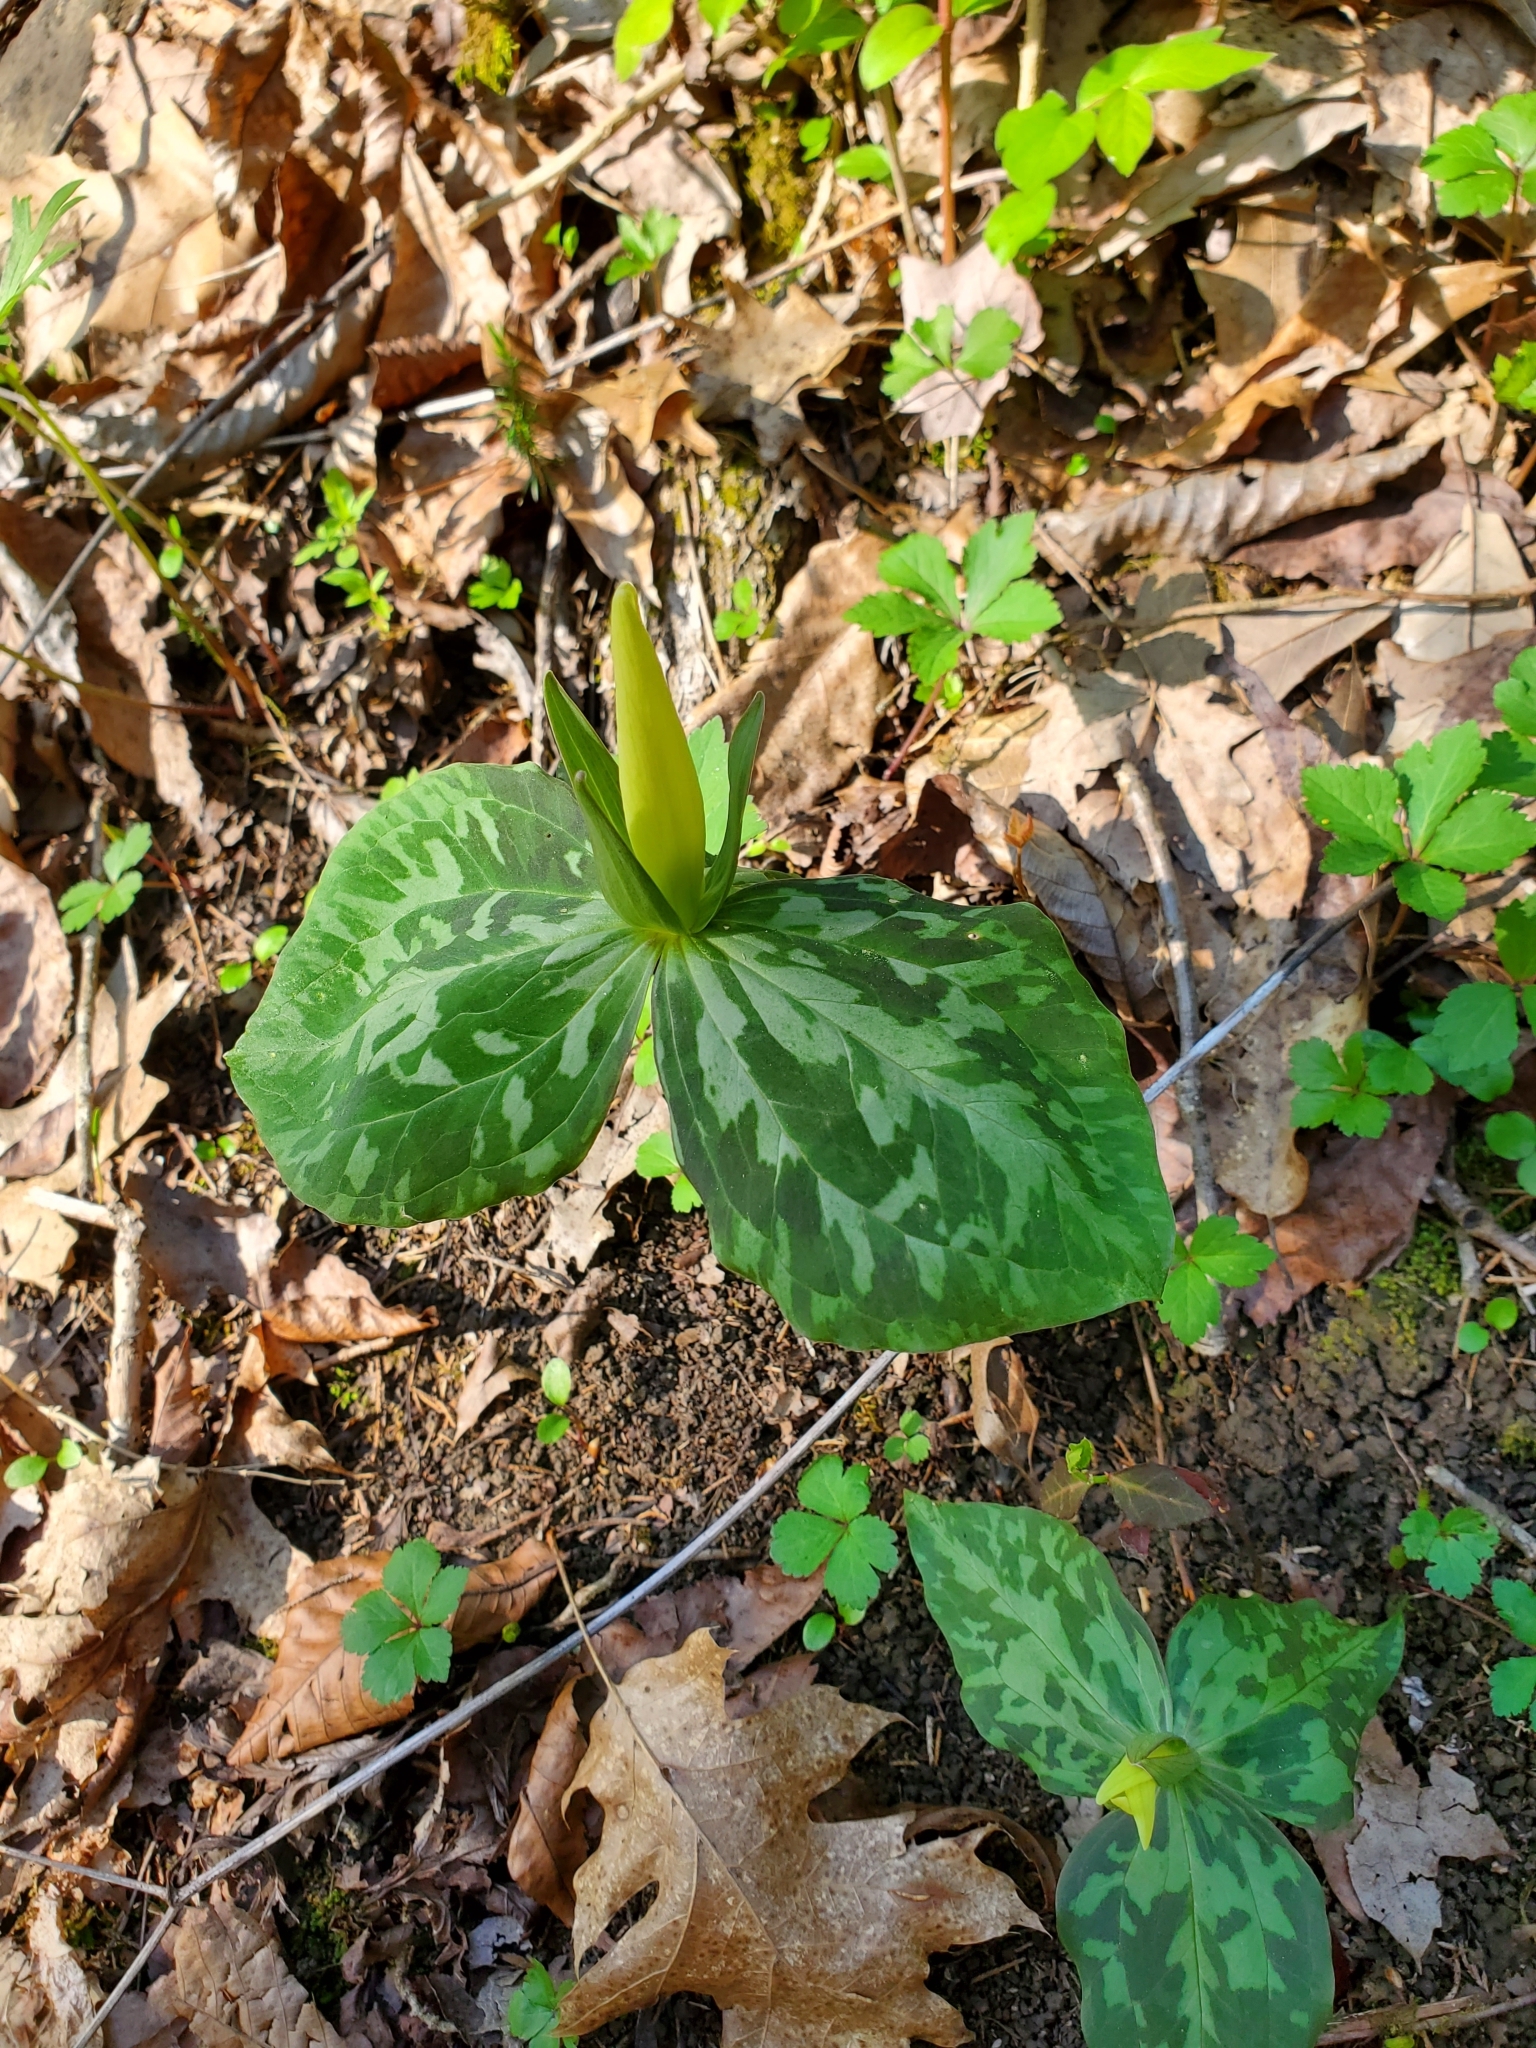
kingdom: Plantae
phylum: Tracheophyta
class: Liliopsida
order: Liliales
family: Melanthiaceae
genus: Trillium
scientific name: Trillium luteum
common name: Wax trillium
